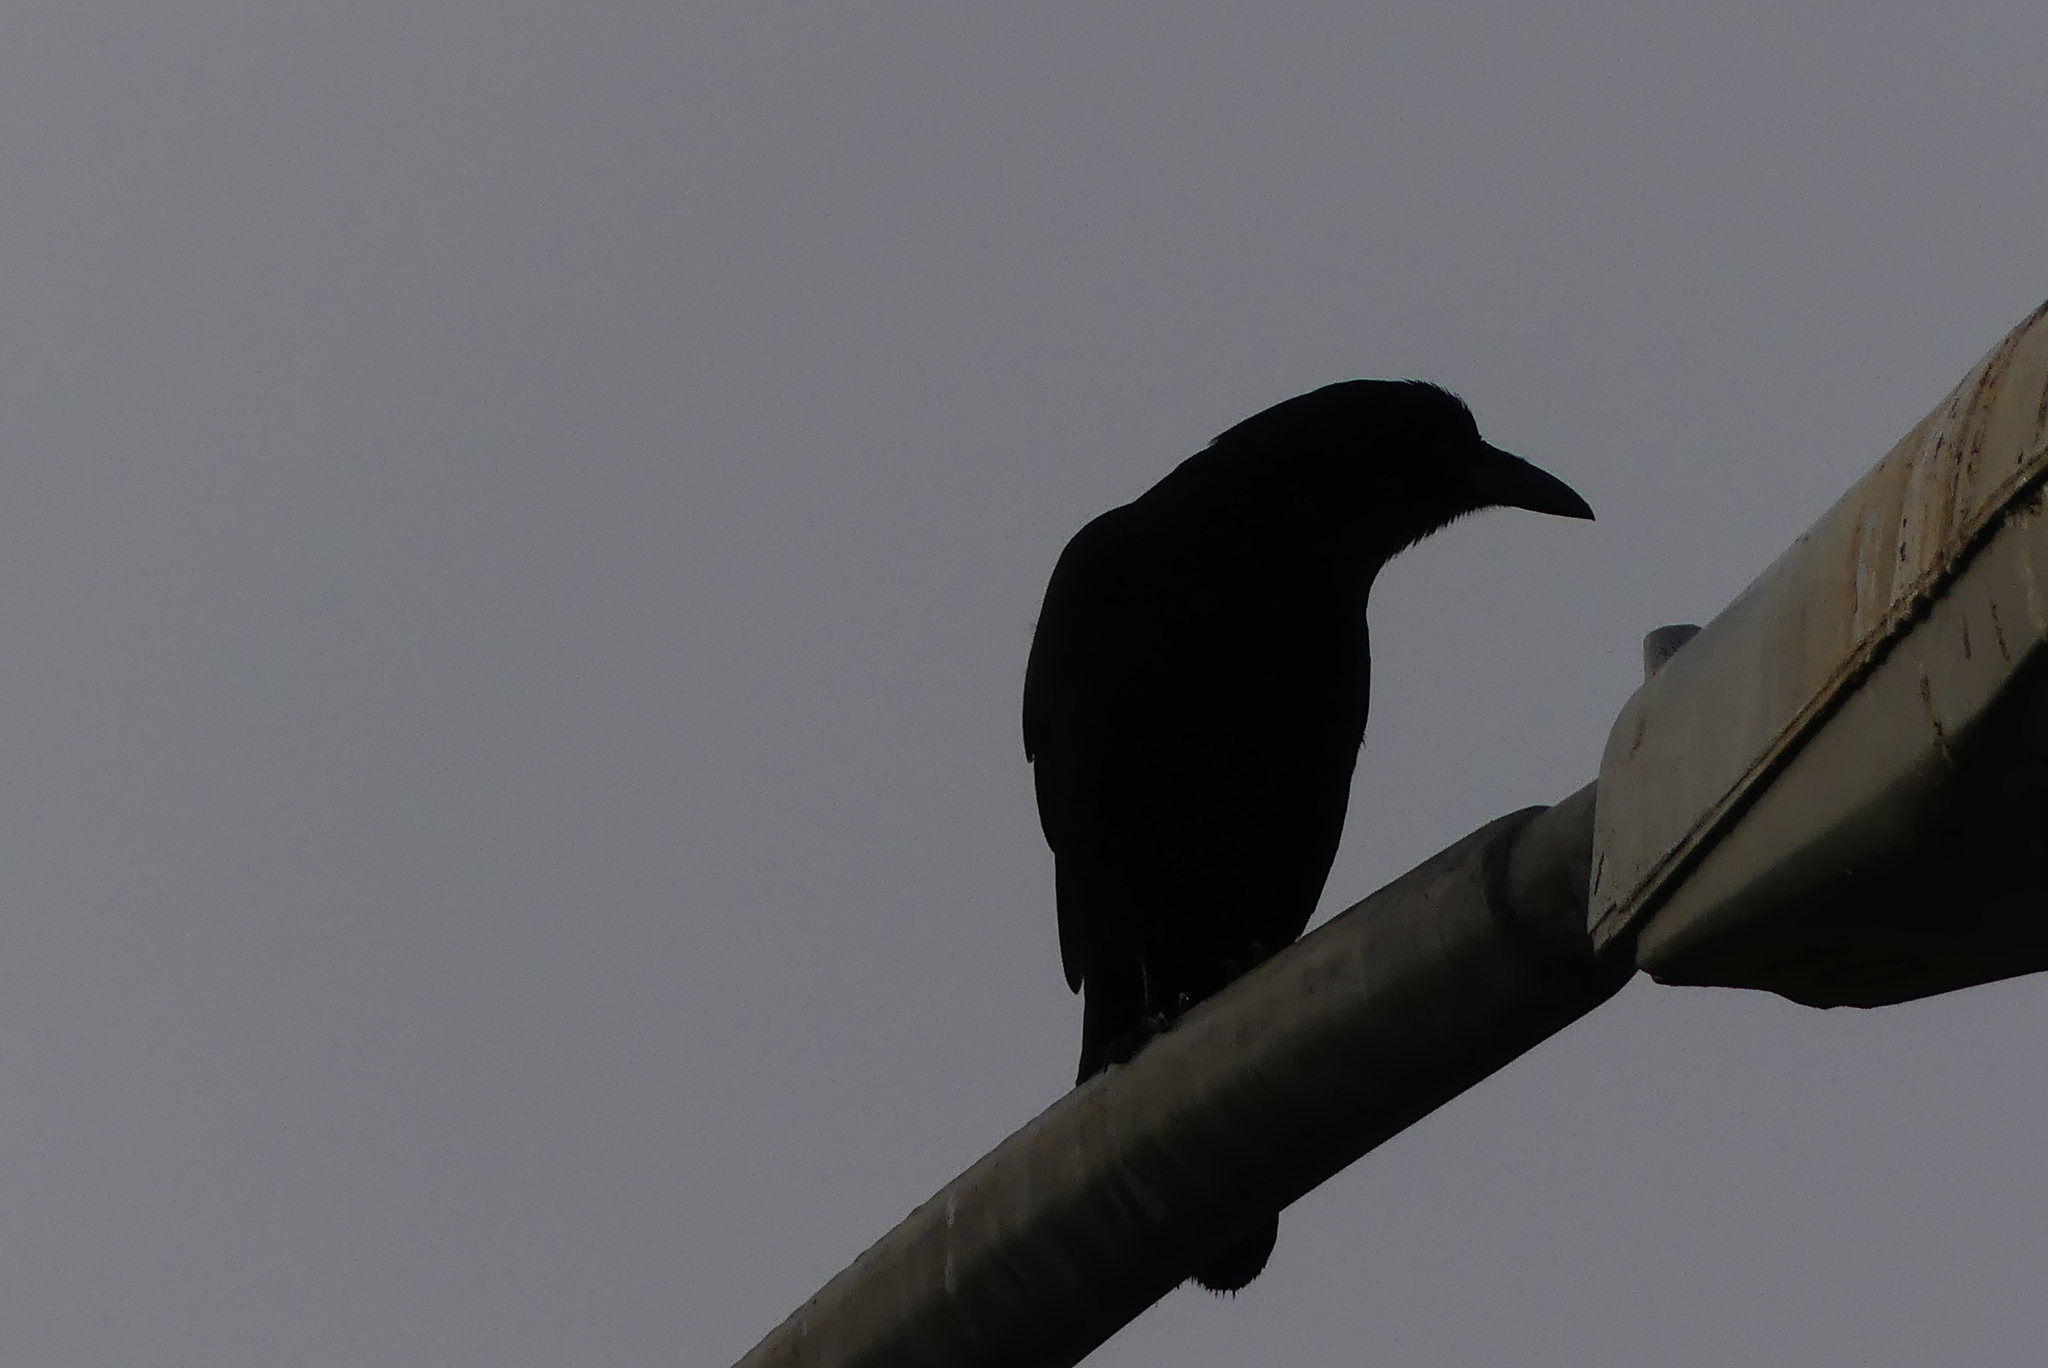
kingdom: Animalia
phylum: Chordata
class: Aves
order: Passeriformes
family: Corvidae
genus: Corvus
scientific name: Corvus brachyrhynchos
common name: American crow
